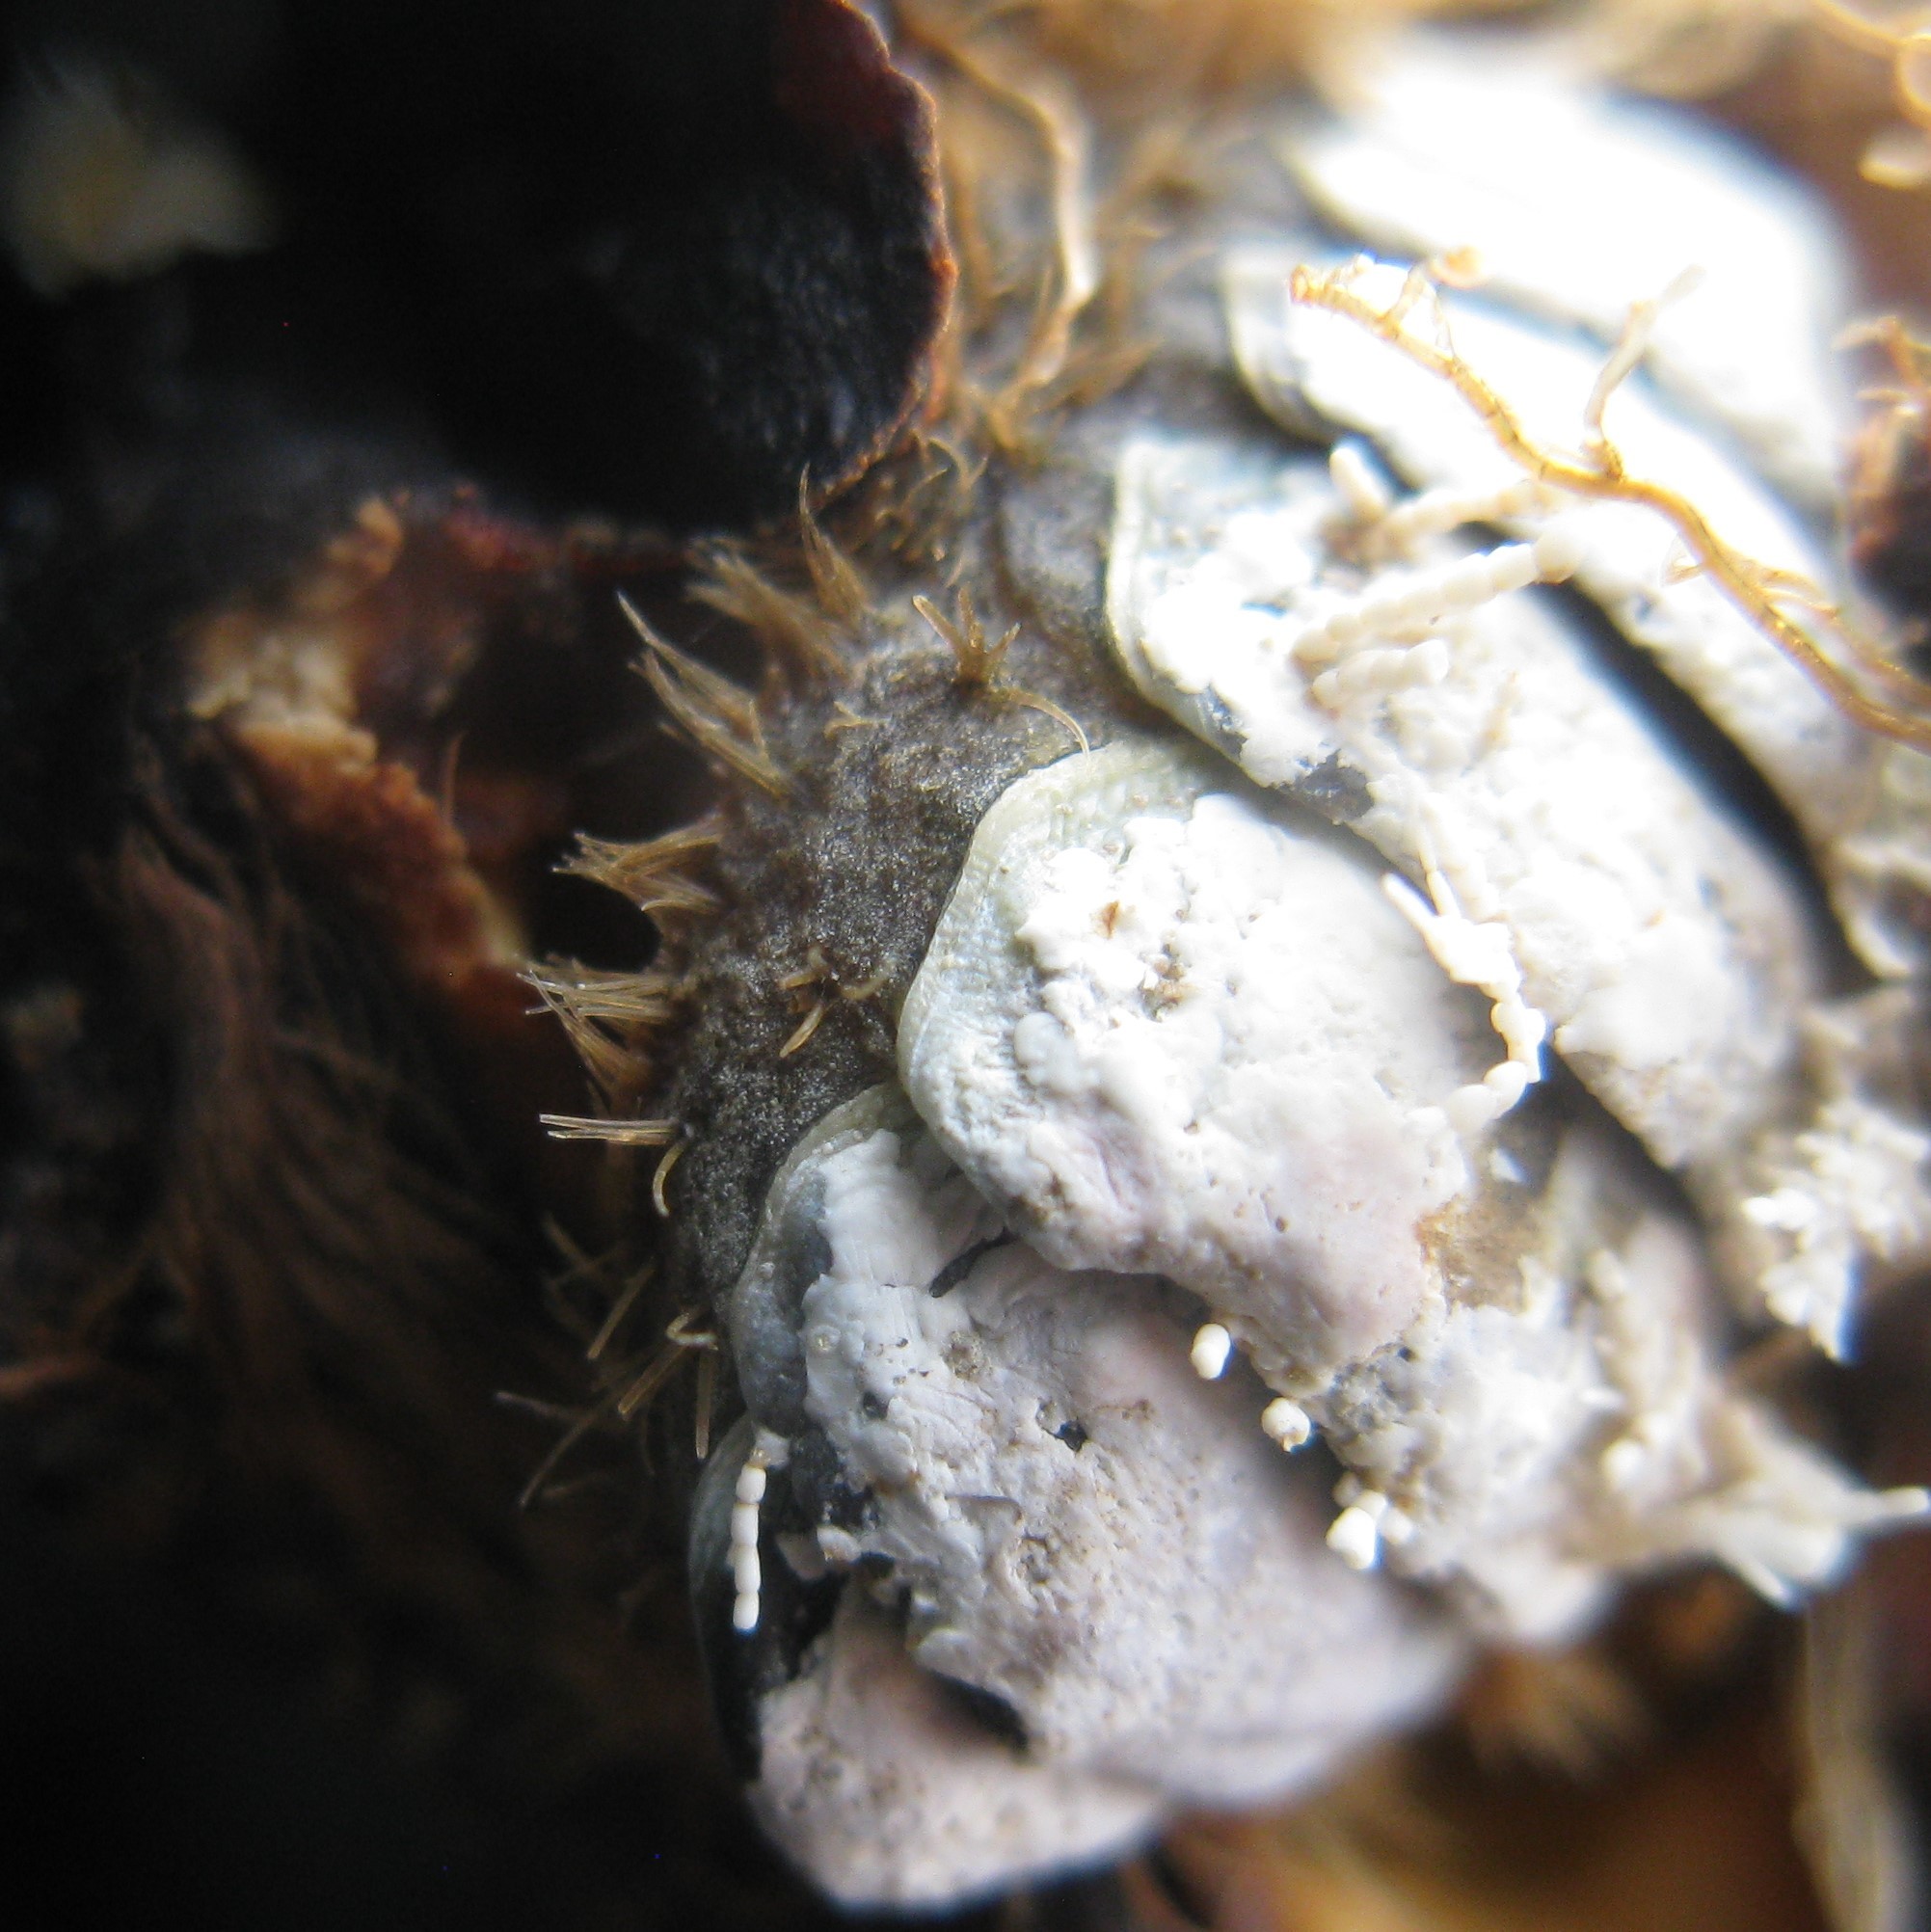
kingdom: Animalia
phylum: Mollusca
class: Polyplacophora
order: Chitonida
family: Mopaliidae
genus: Plaxiphora
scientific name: Plaxiphora biramosa
